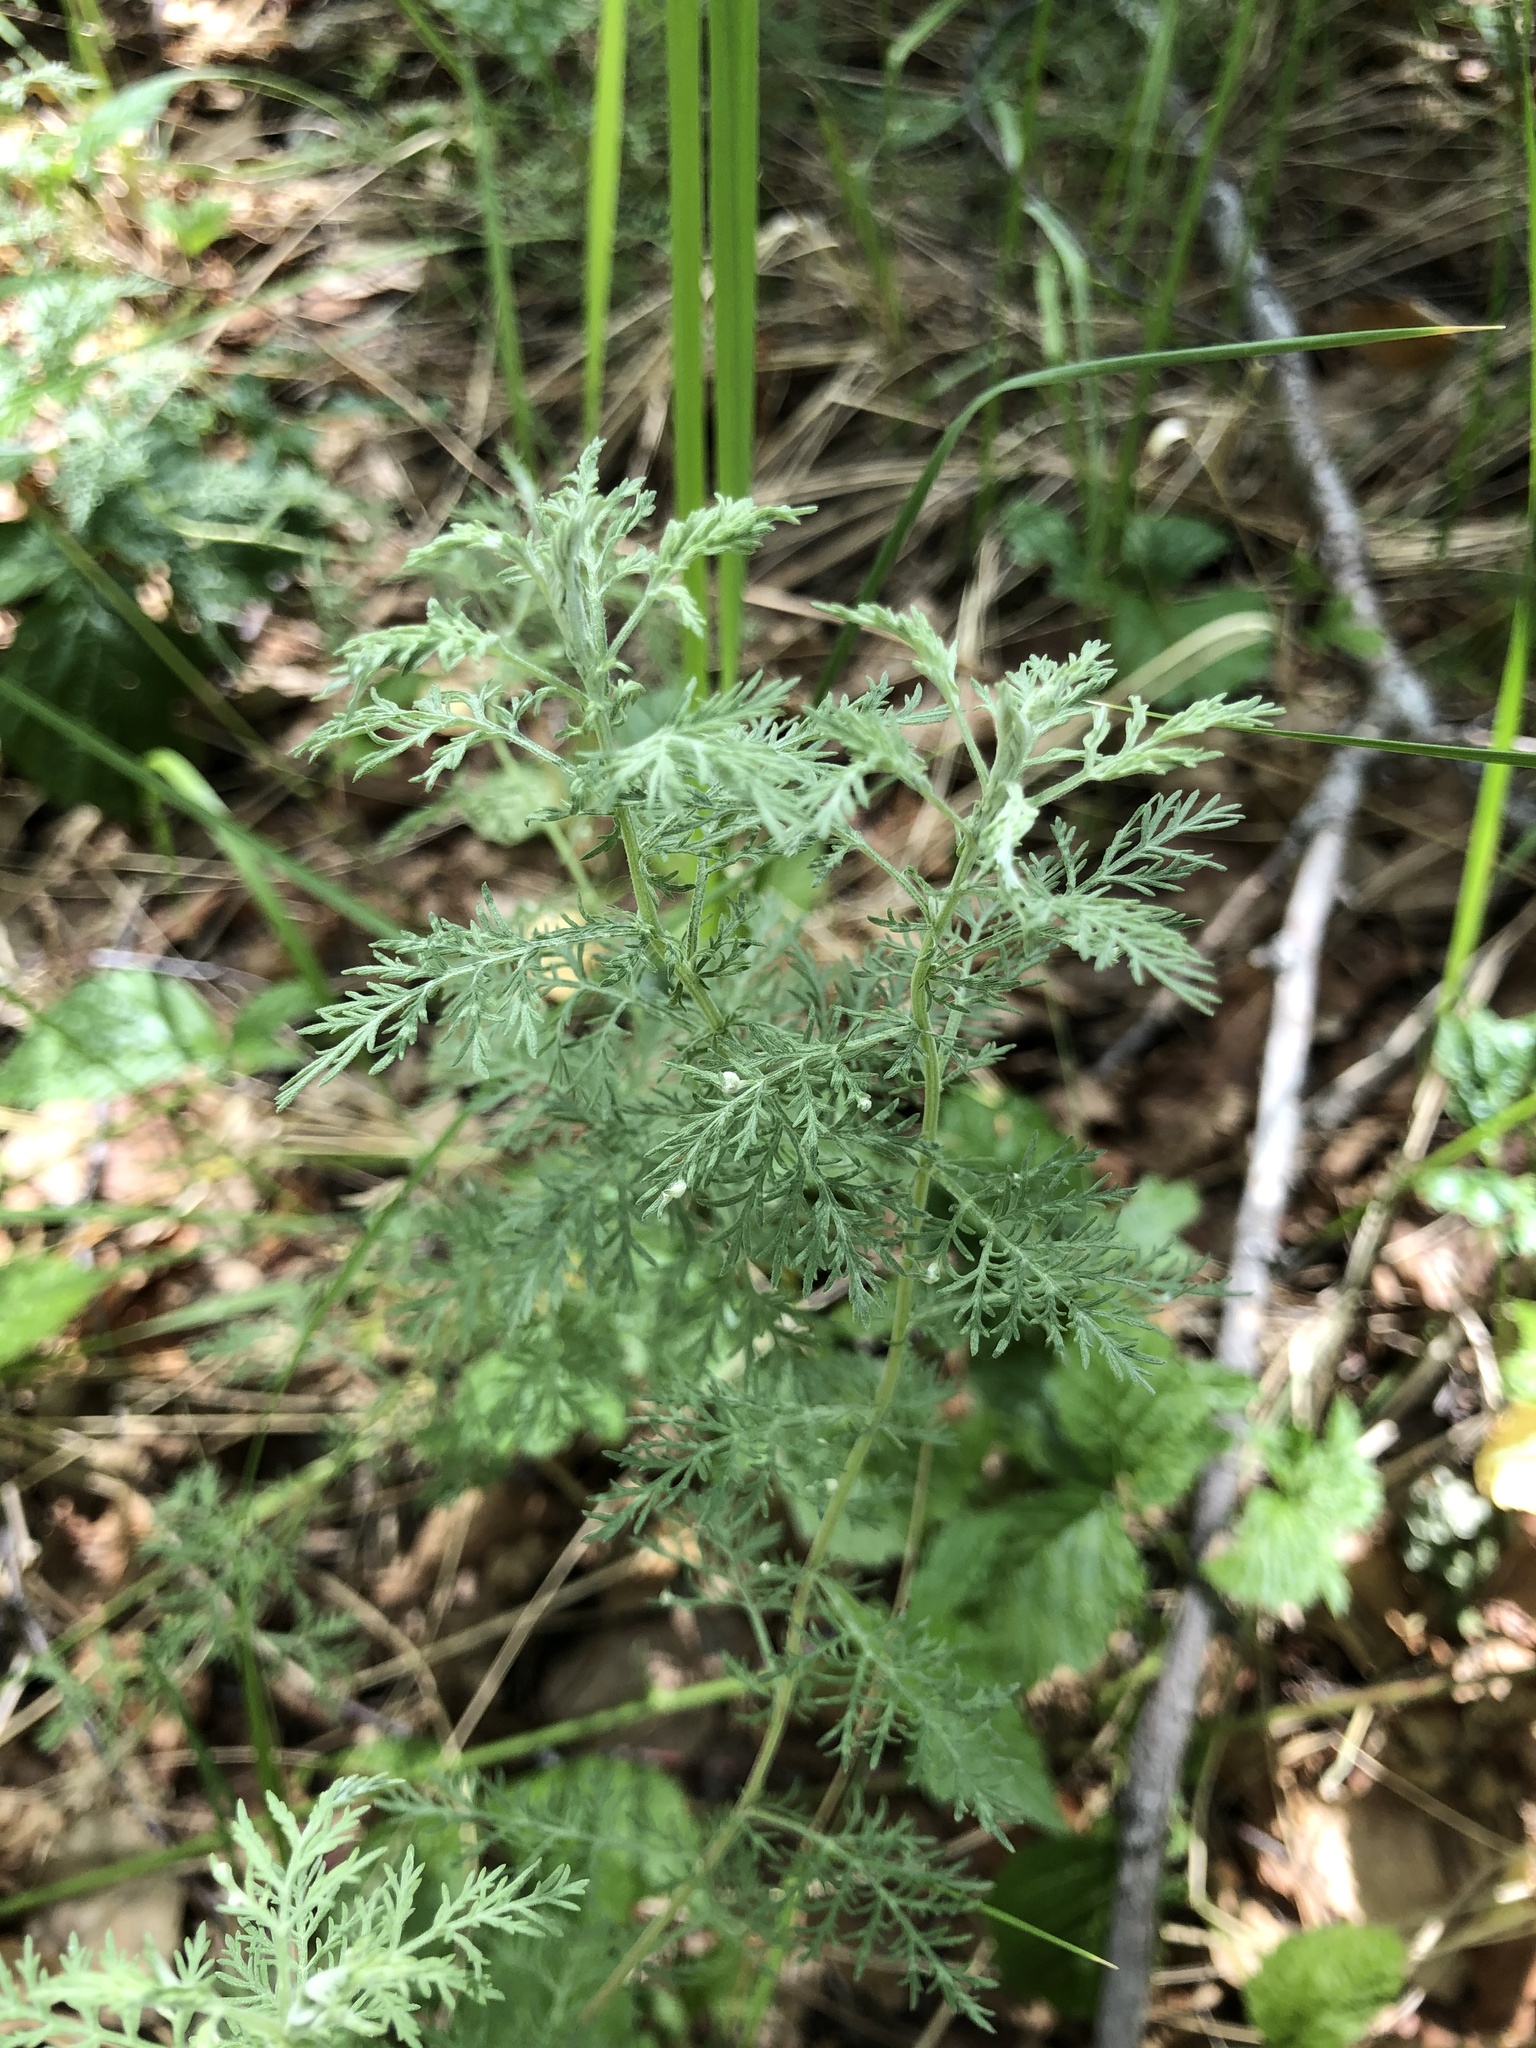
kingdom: Plantae
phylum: Tracheophyta
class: Magnoliopsida
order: Asterales
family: Asteraceae
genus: Artemisia
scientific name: Artemisia pontica
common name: Roman wormwood
